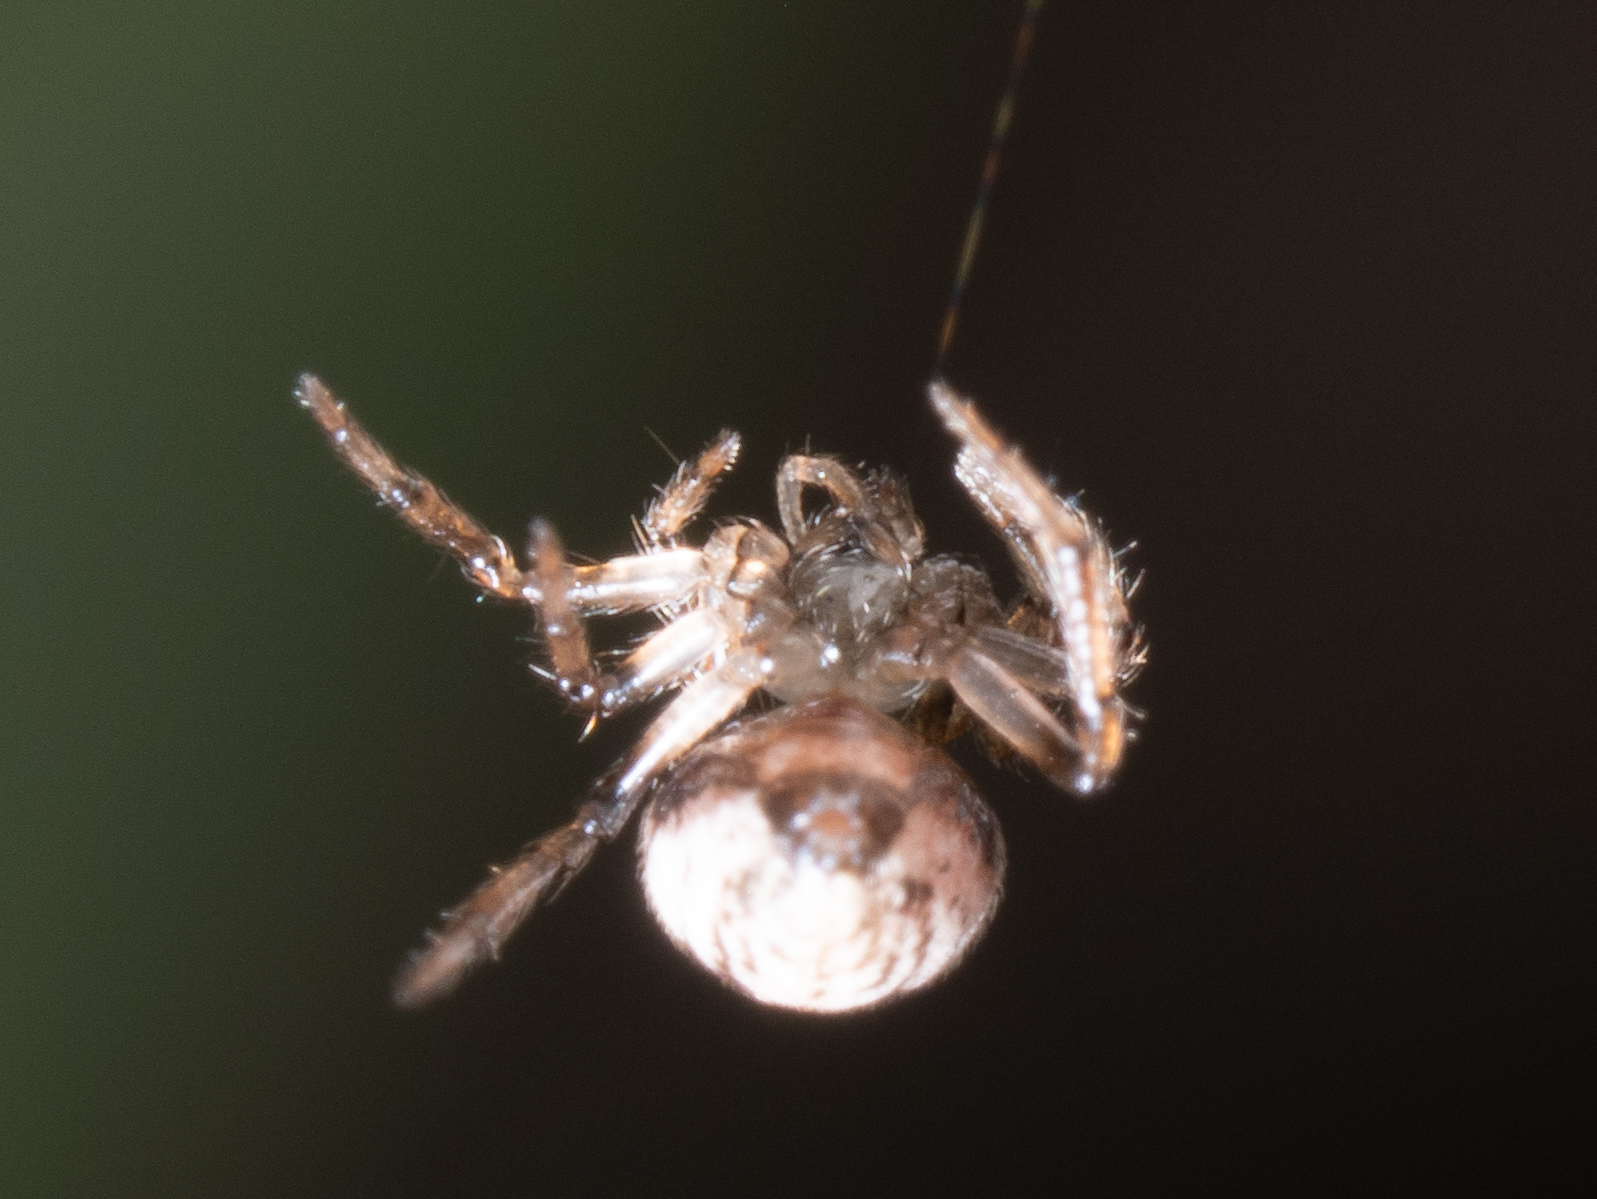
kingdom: Animalia
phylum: Arthropoda
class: Arachnida
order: Araneae
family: Theridiidae
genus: Phycosoma
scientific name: Phycosoma
